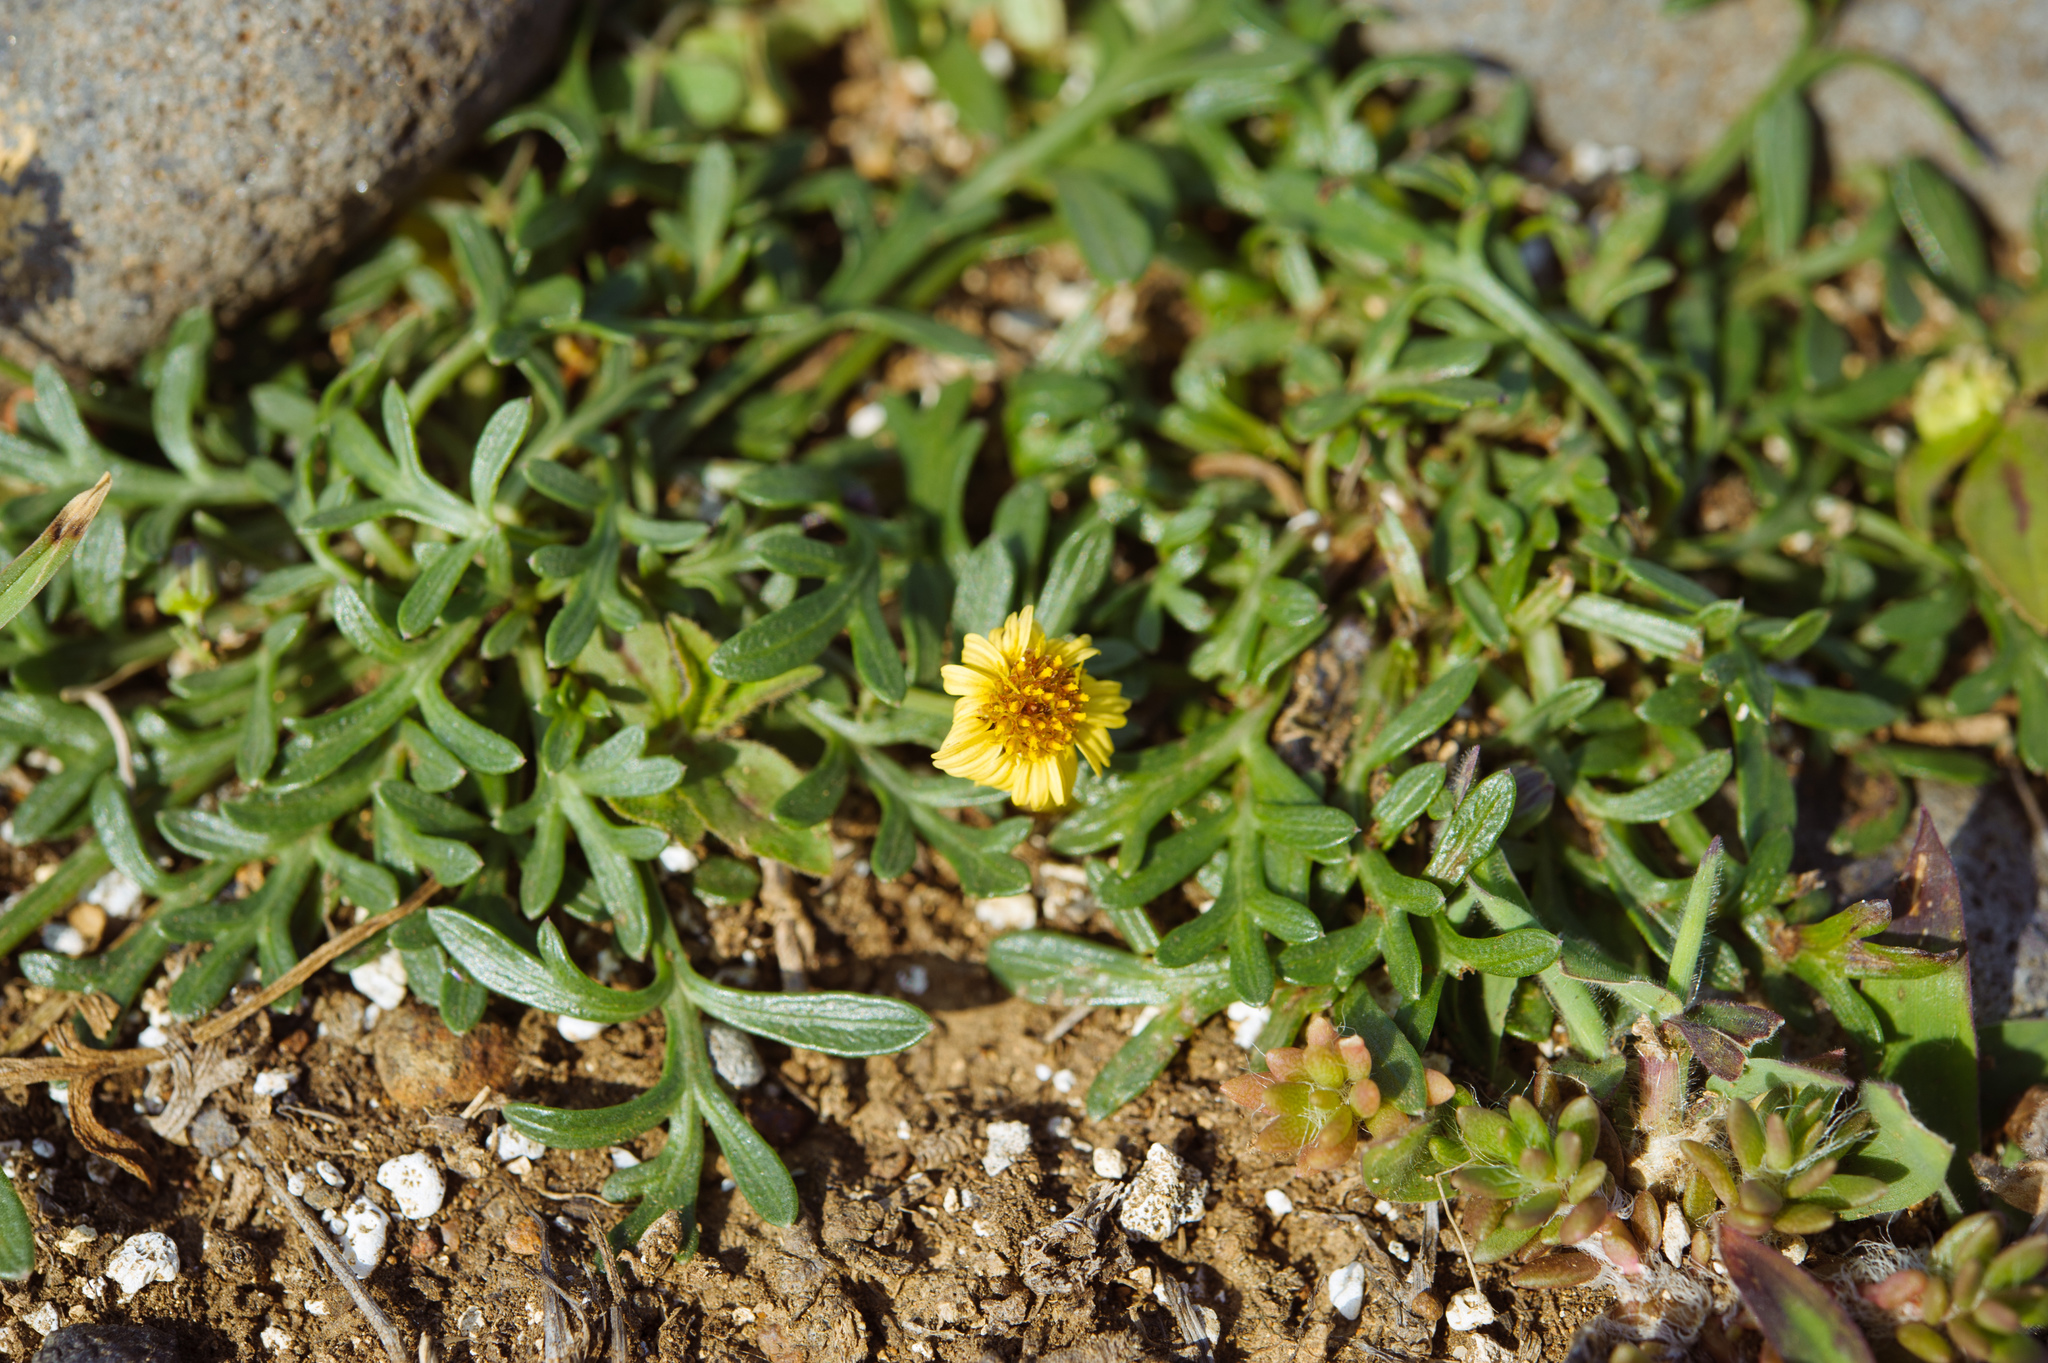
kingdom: Plantae
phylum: Tracheophyta
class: Magnoliopsida
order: Asterales
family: Asteraceae
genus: Glossocardia
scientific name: Glossocardia bidens
